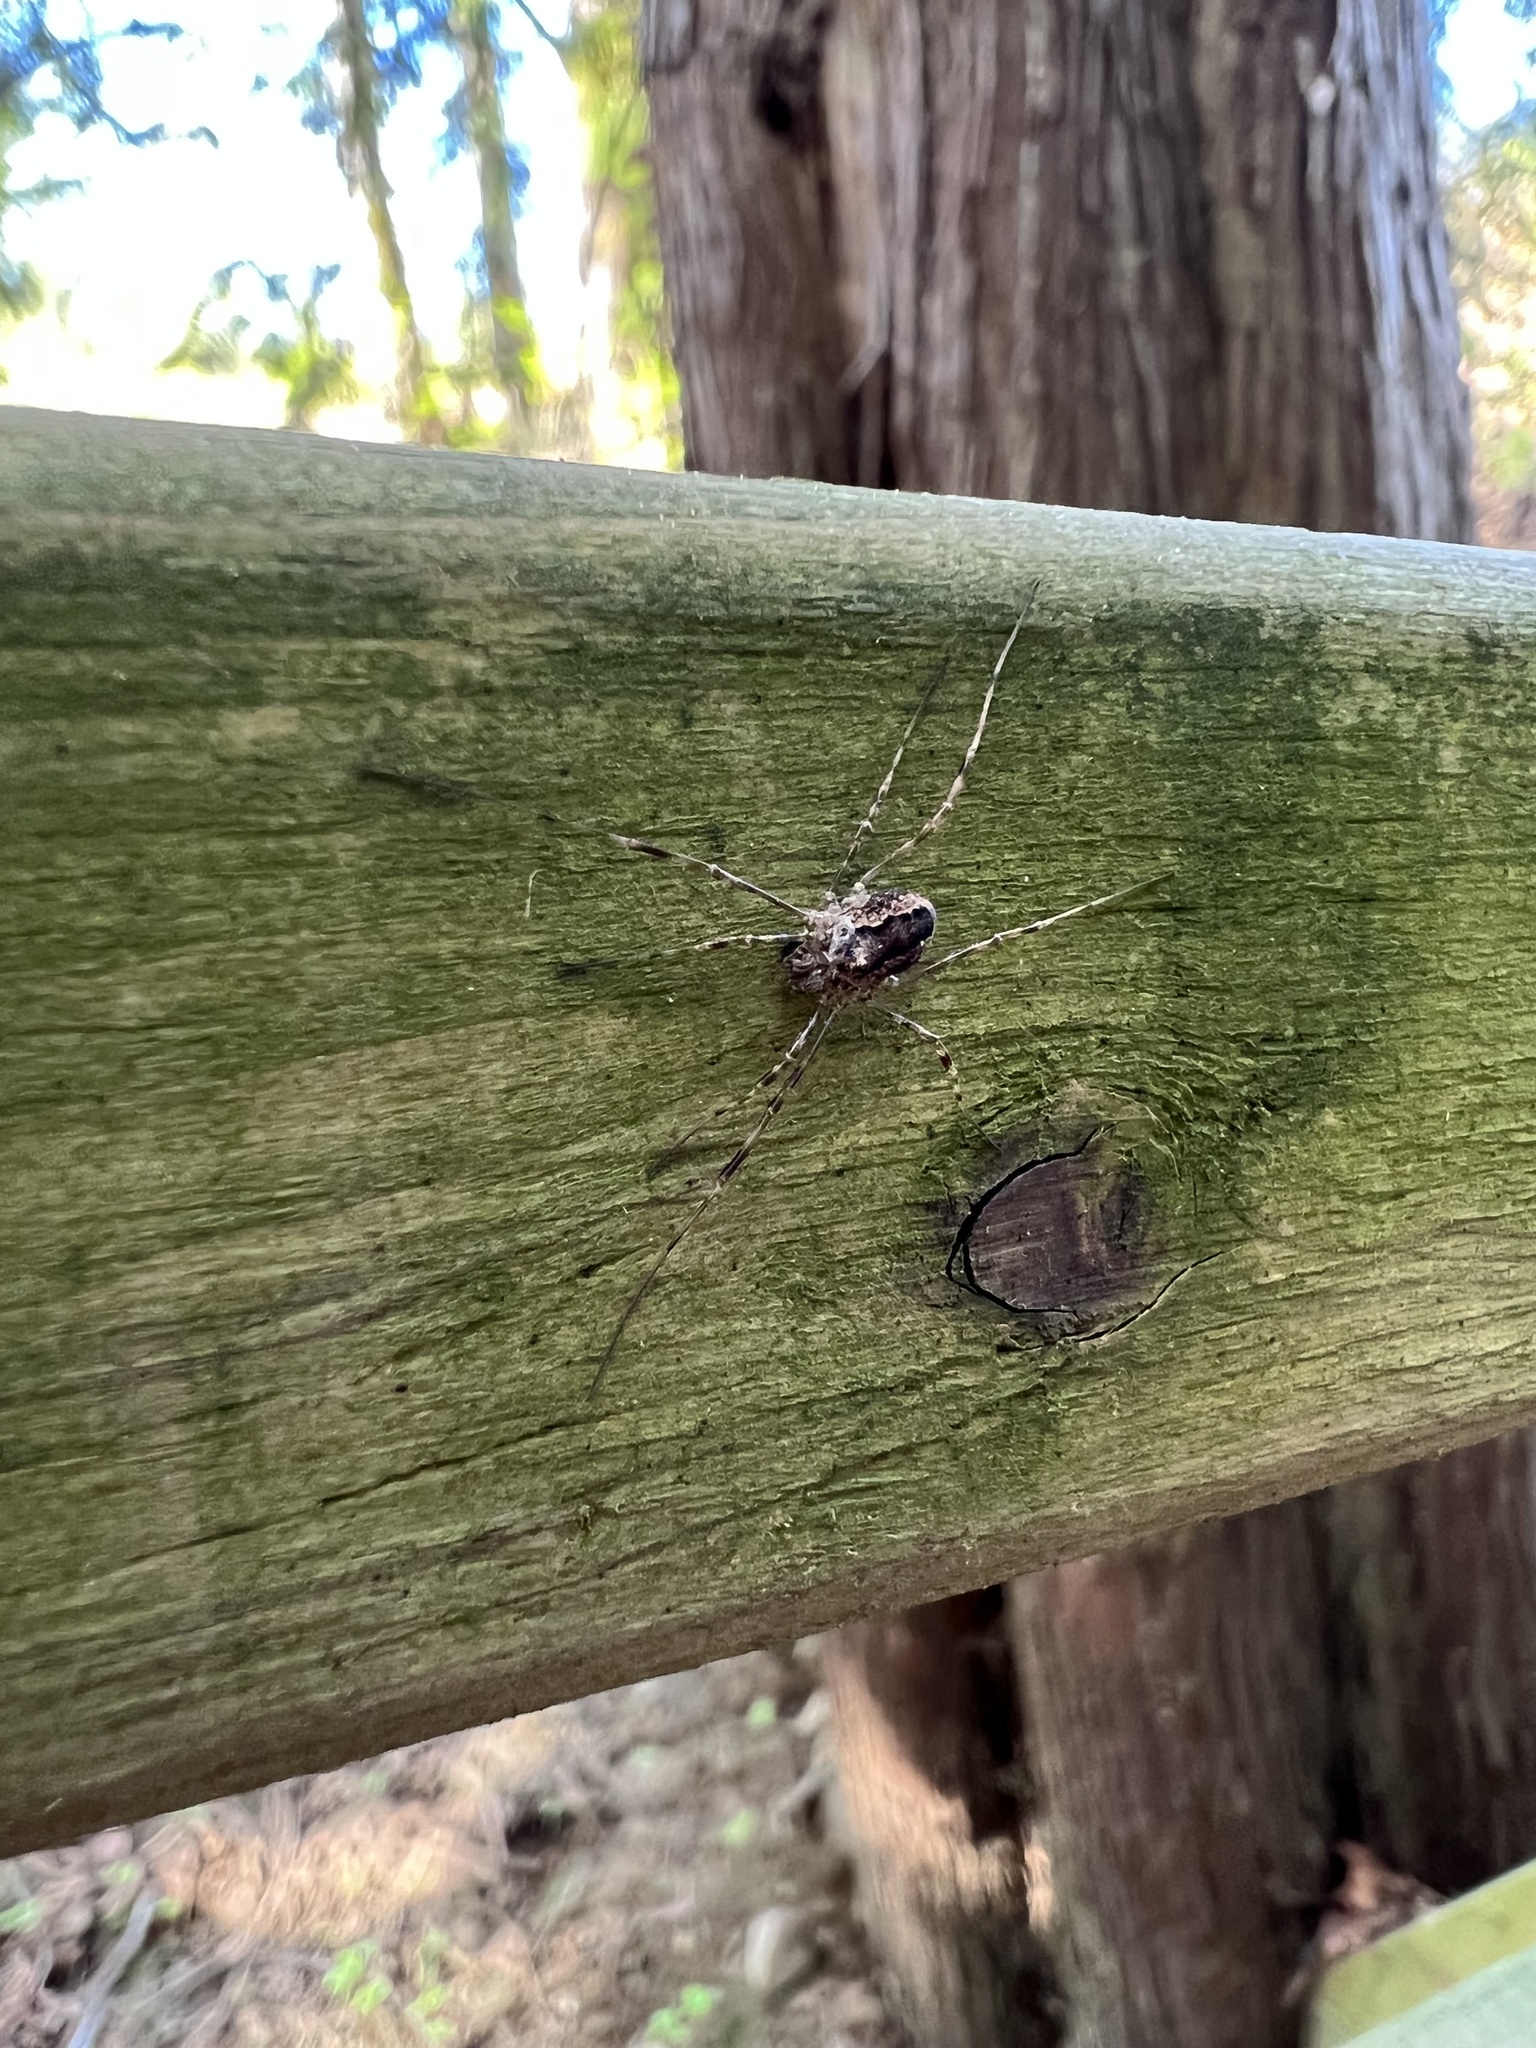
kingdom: Animalia
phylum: Arthropoda
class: Arachnida
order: Opiliones
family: Phalangiidae
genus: Rilaena
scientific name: Rilaena triangularis
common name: Spring harvestman
